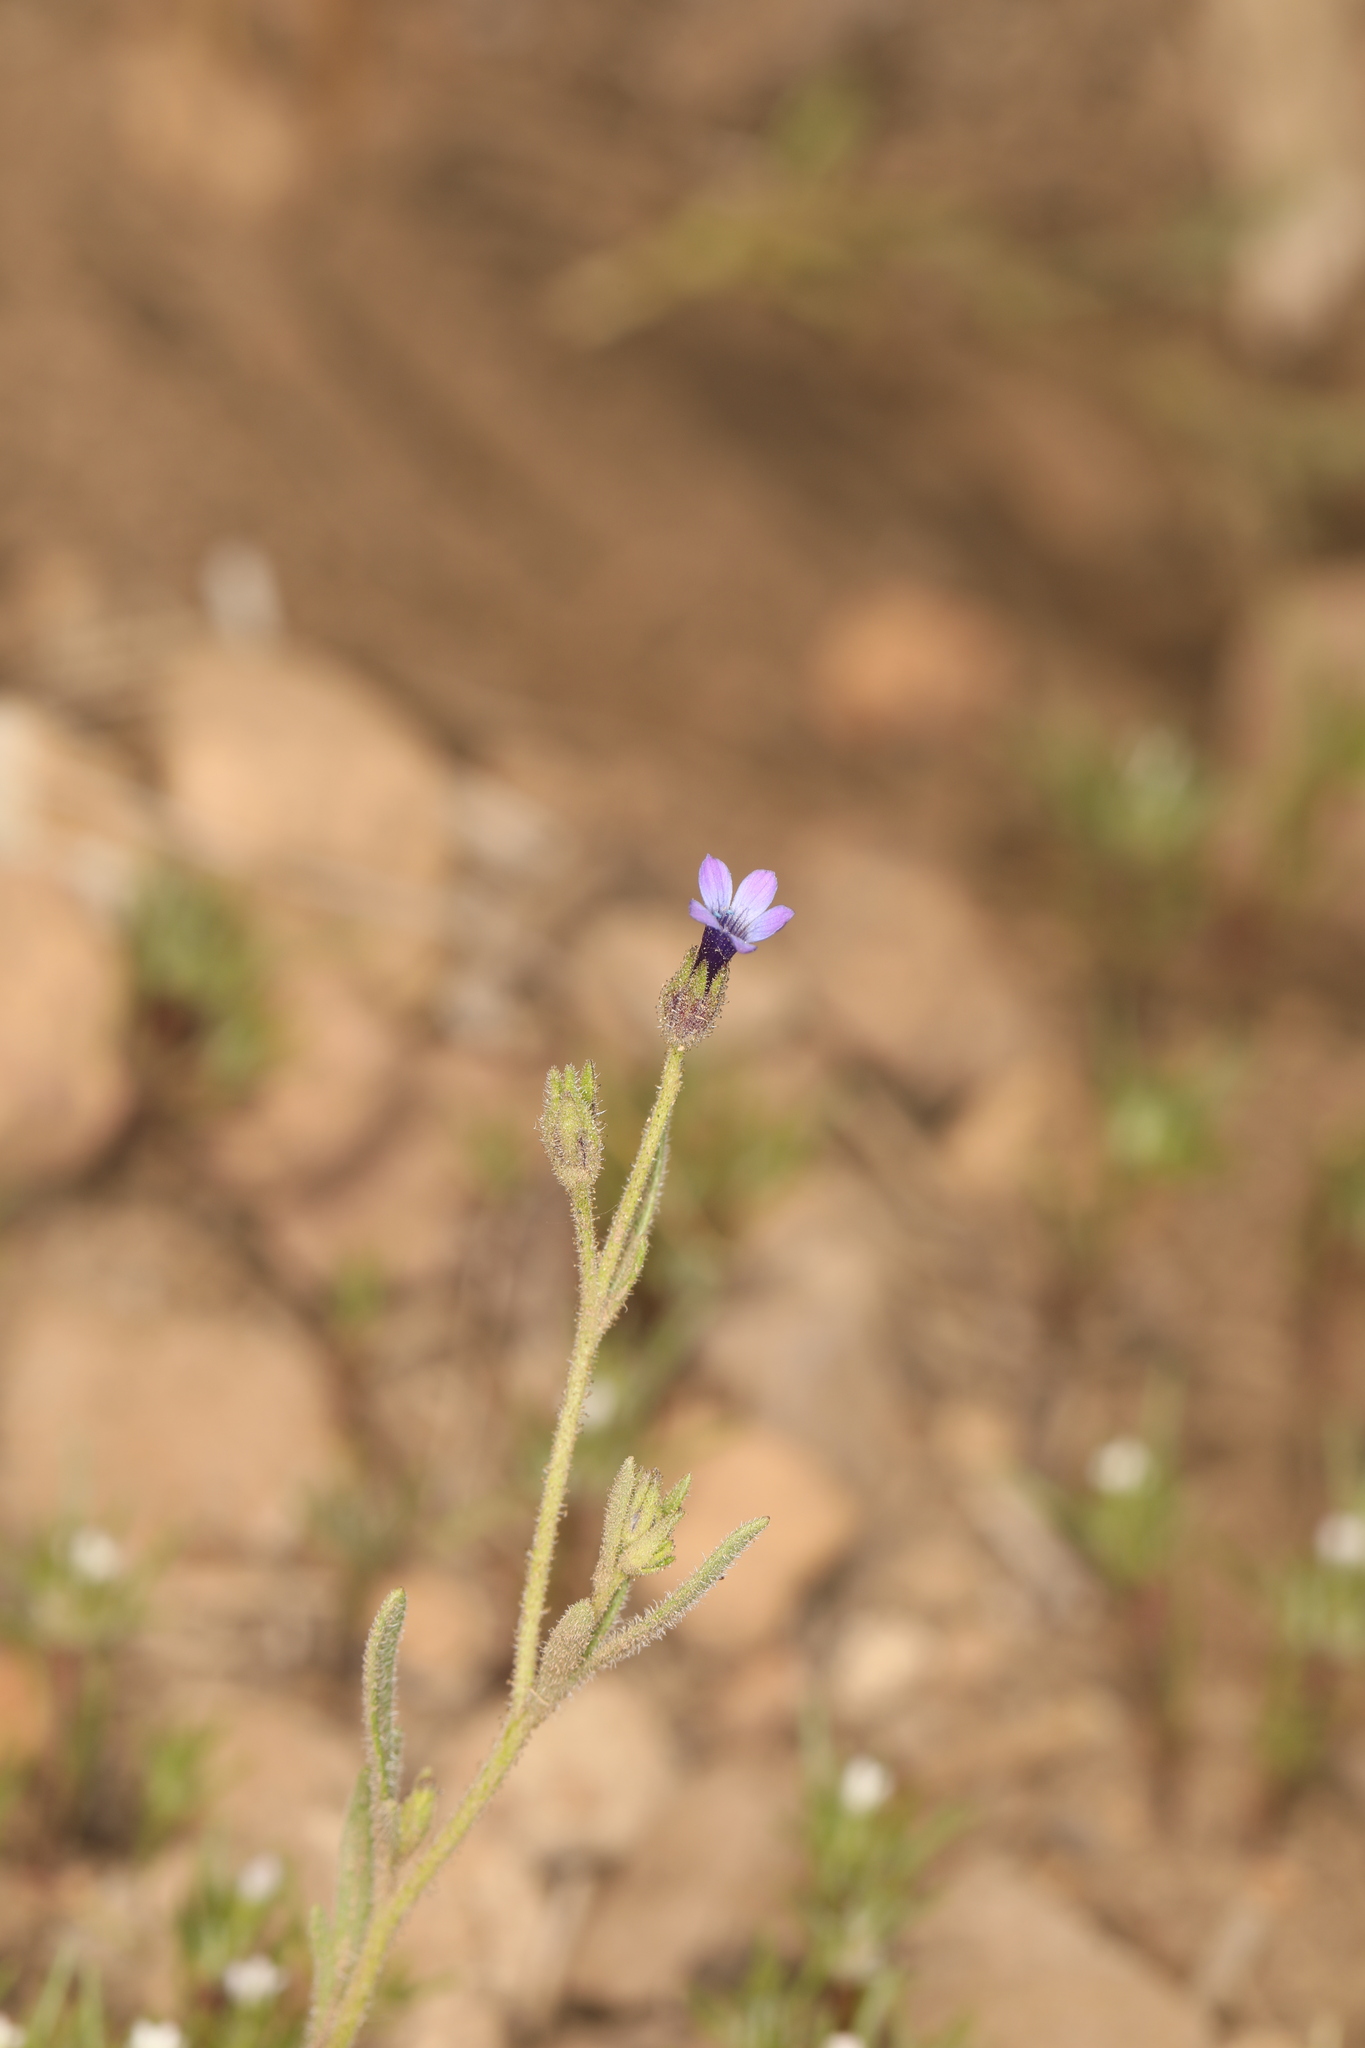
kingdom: Plantae
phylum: Tracheophyta
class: Magnoliopsida
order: Ericales
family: Polemoniaceae
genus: Allophyllum
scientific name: Allophyllum gilioides
